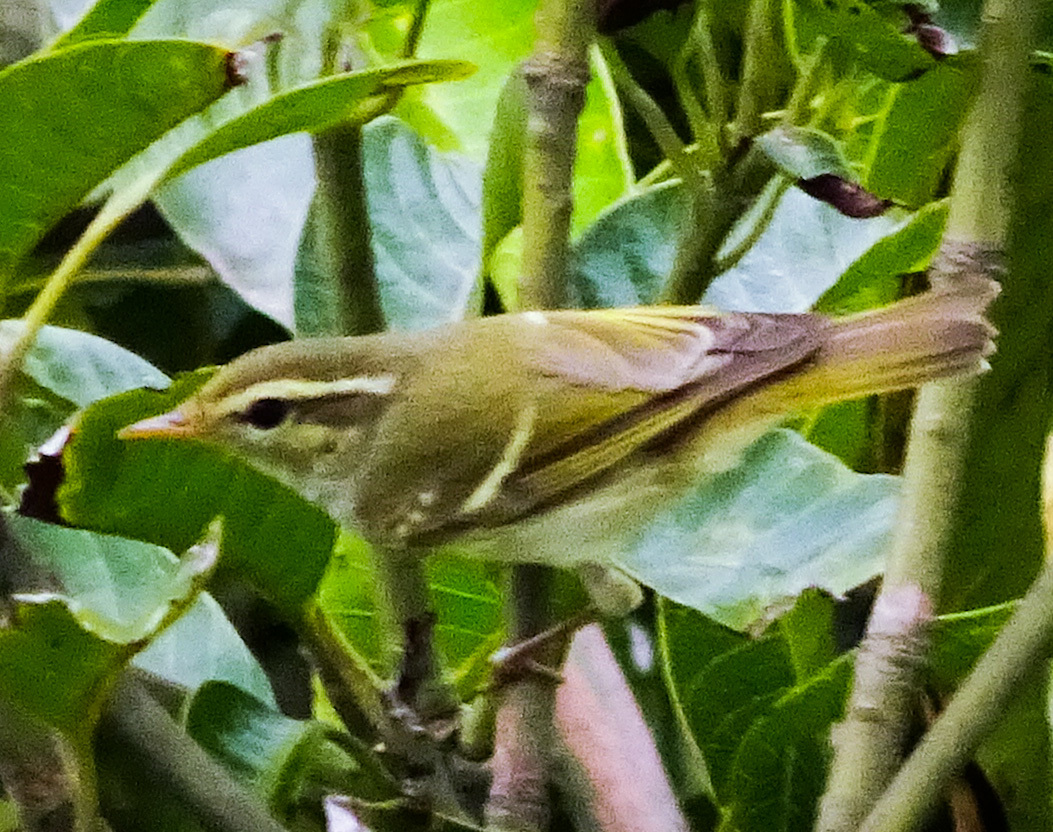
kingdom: Animalia
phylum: Chordata
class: Aves
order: Passeriformes
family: Phylloscopidae
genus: Phylloscopus
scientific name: Phylloscopus inornatus
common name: Yellow-browed warbler
